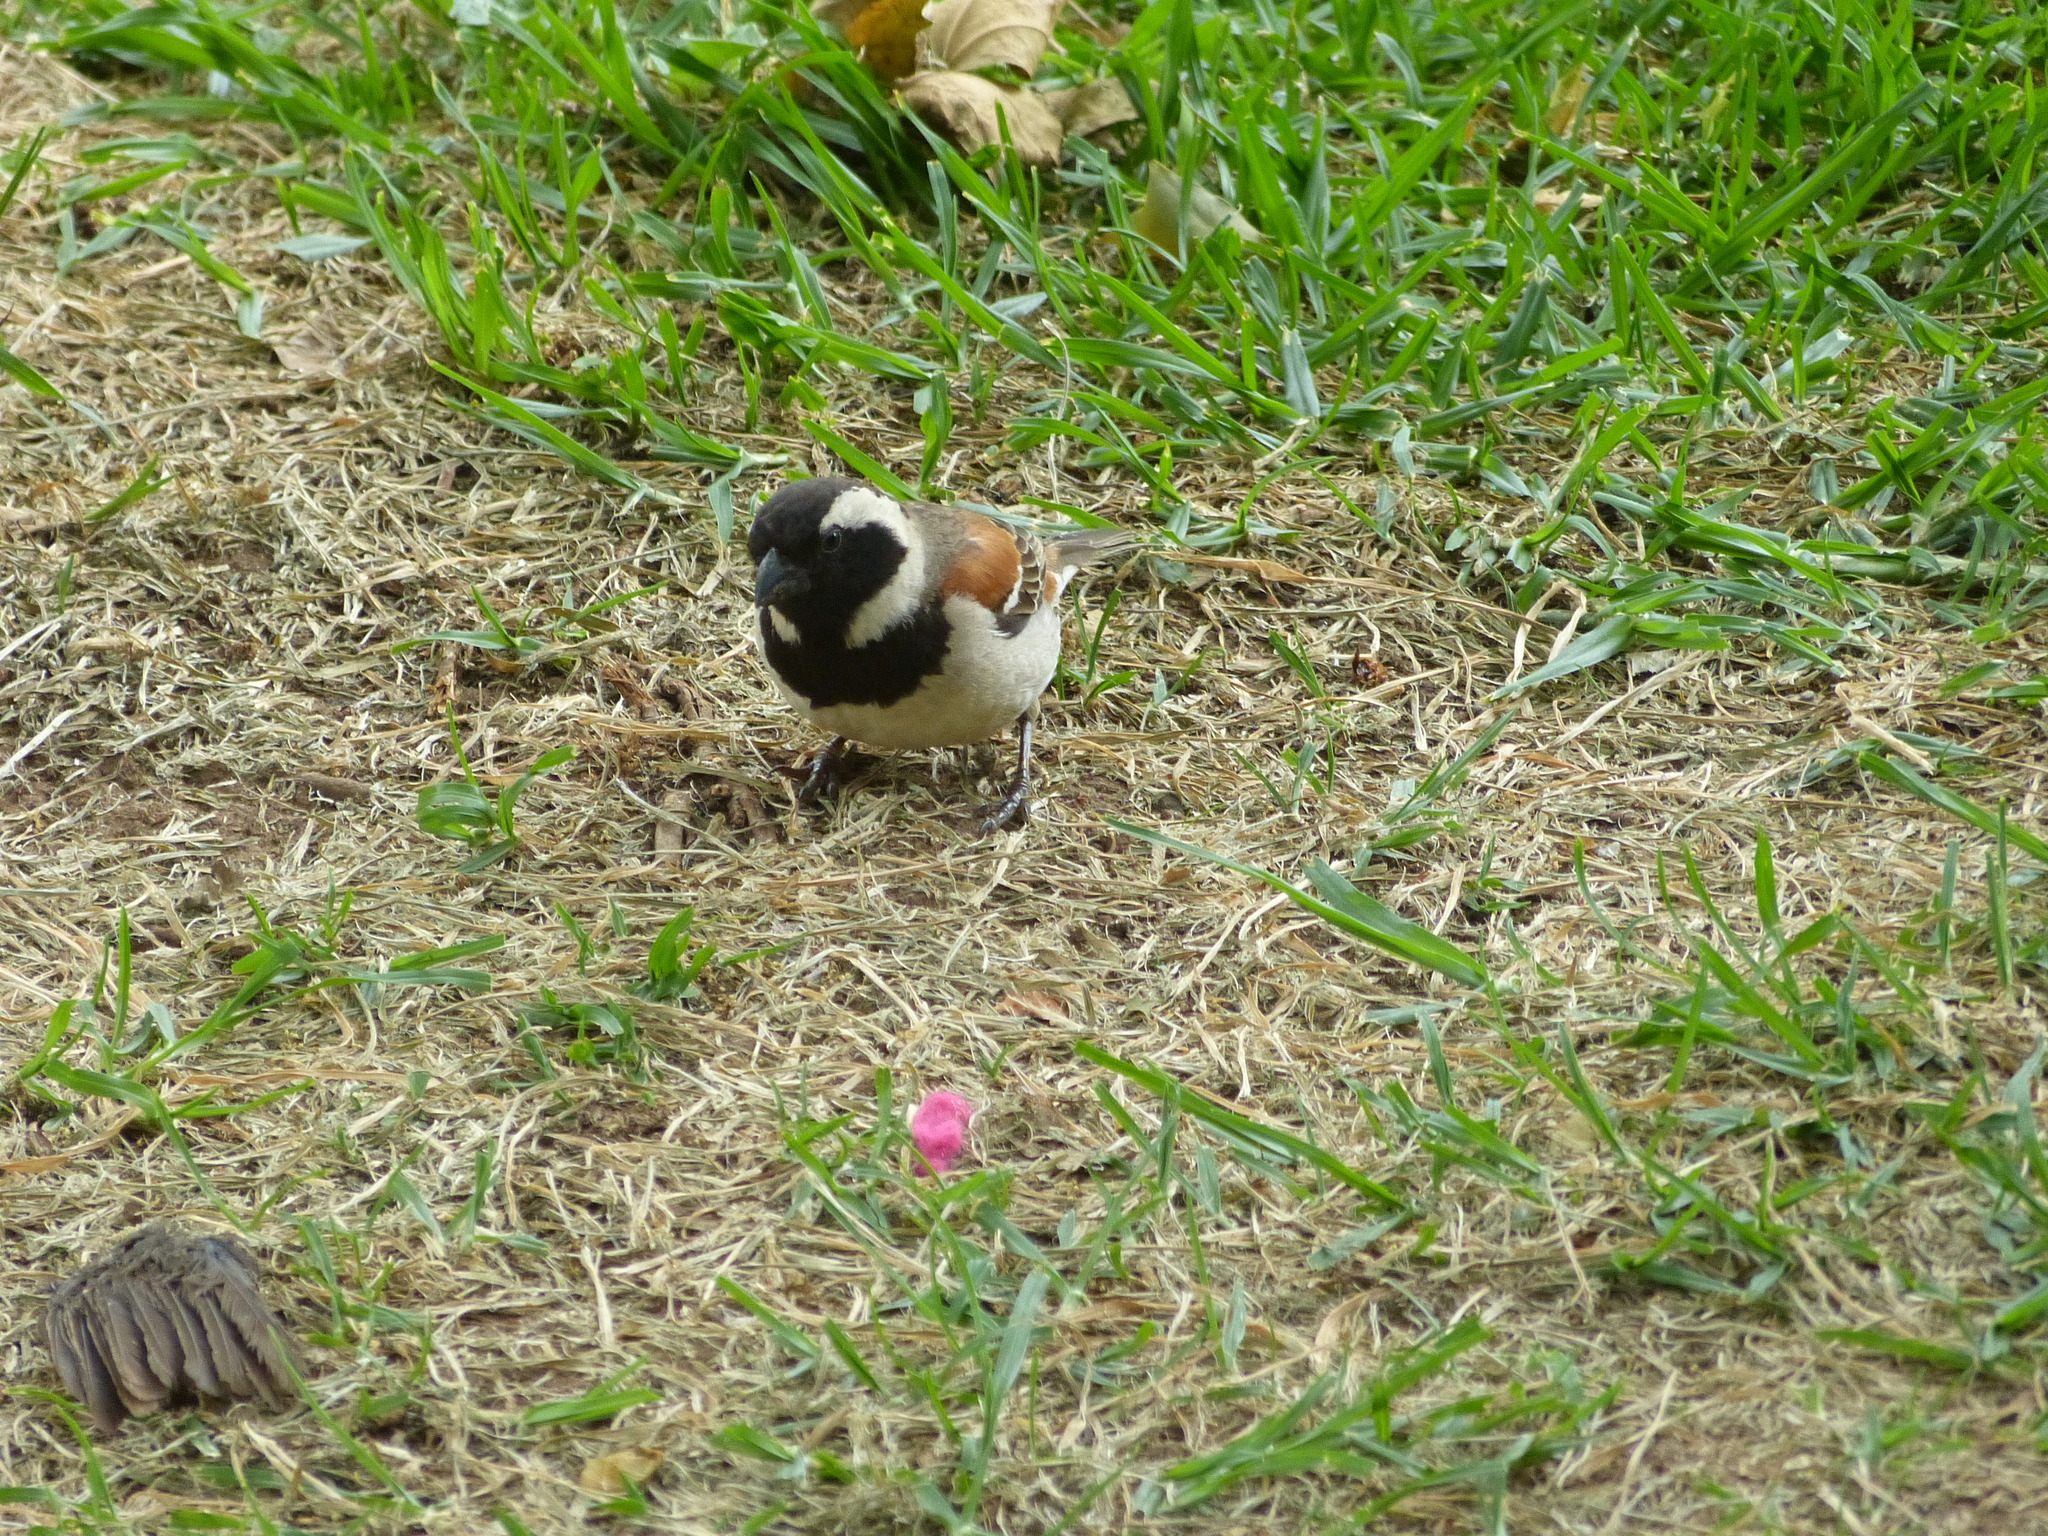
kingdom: Animalia
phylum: Chordata
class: Aves
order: Passeriformes
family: Passeridae
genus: Passer
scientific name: Passer melanurus
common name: Cape sparrow
